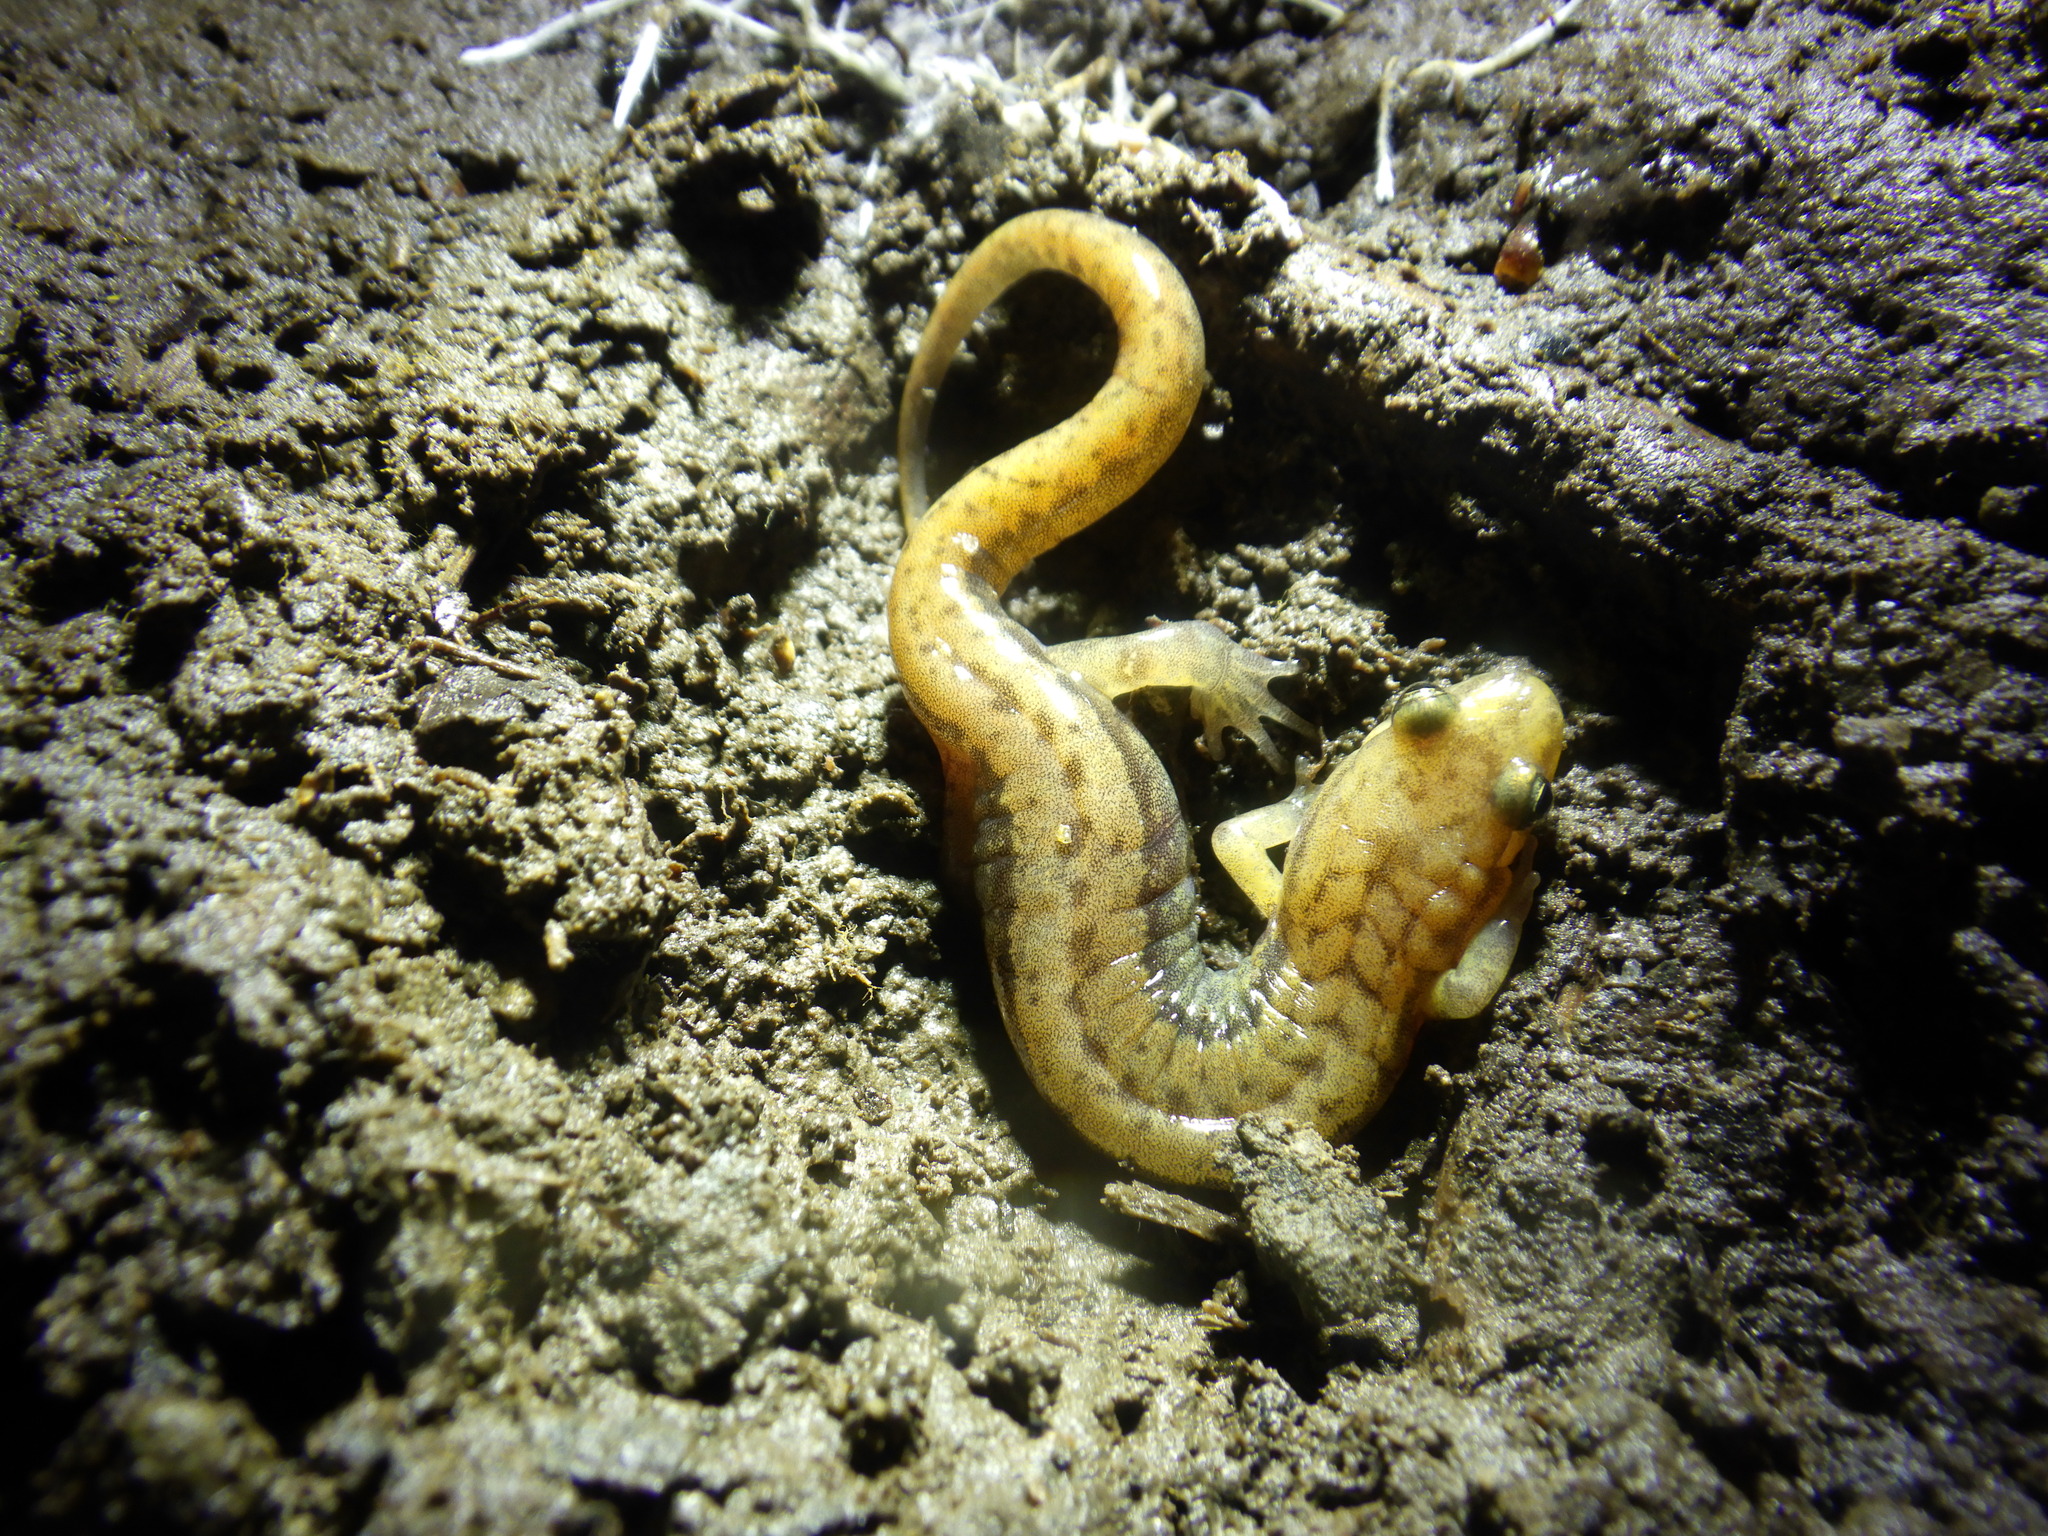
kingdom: Animalia
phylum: Chordata
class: Amphibia
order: Caudata
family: Plethodontidae
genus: Desmognathus
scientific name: Desmognathus ochrophaeus
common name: Allegheny mountain dusky salamander
